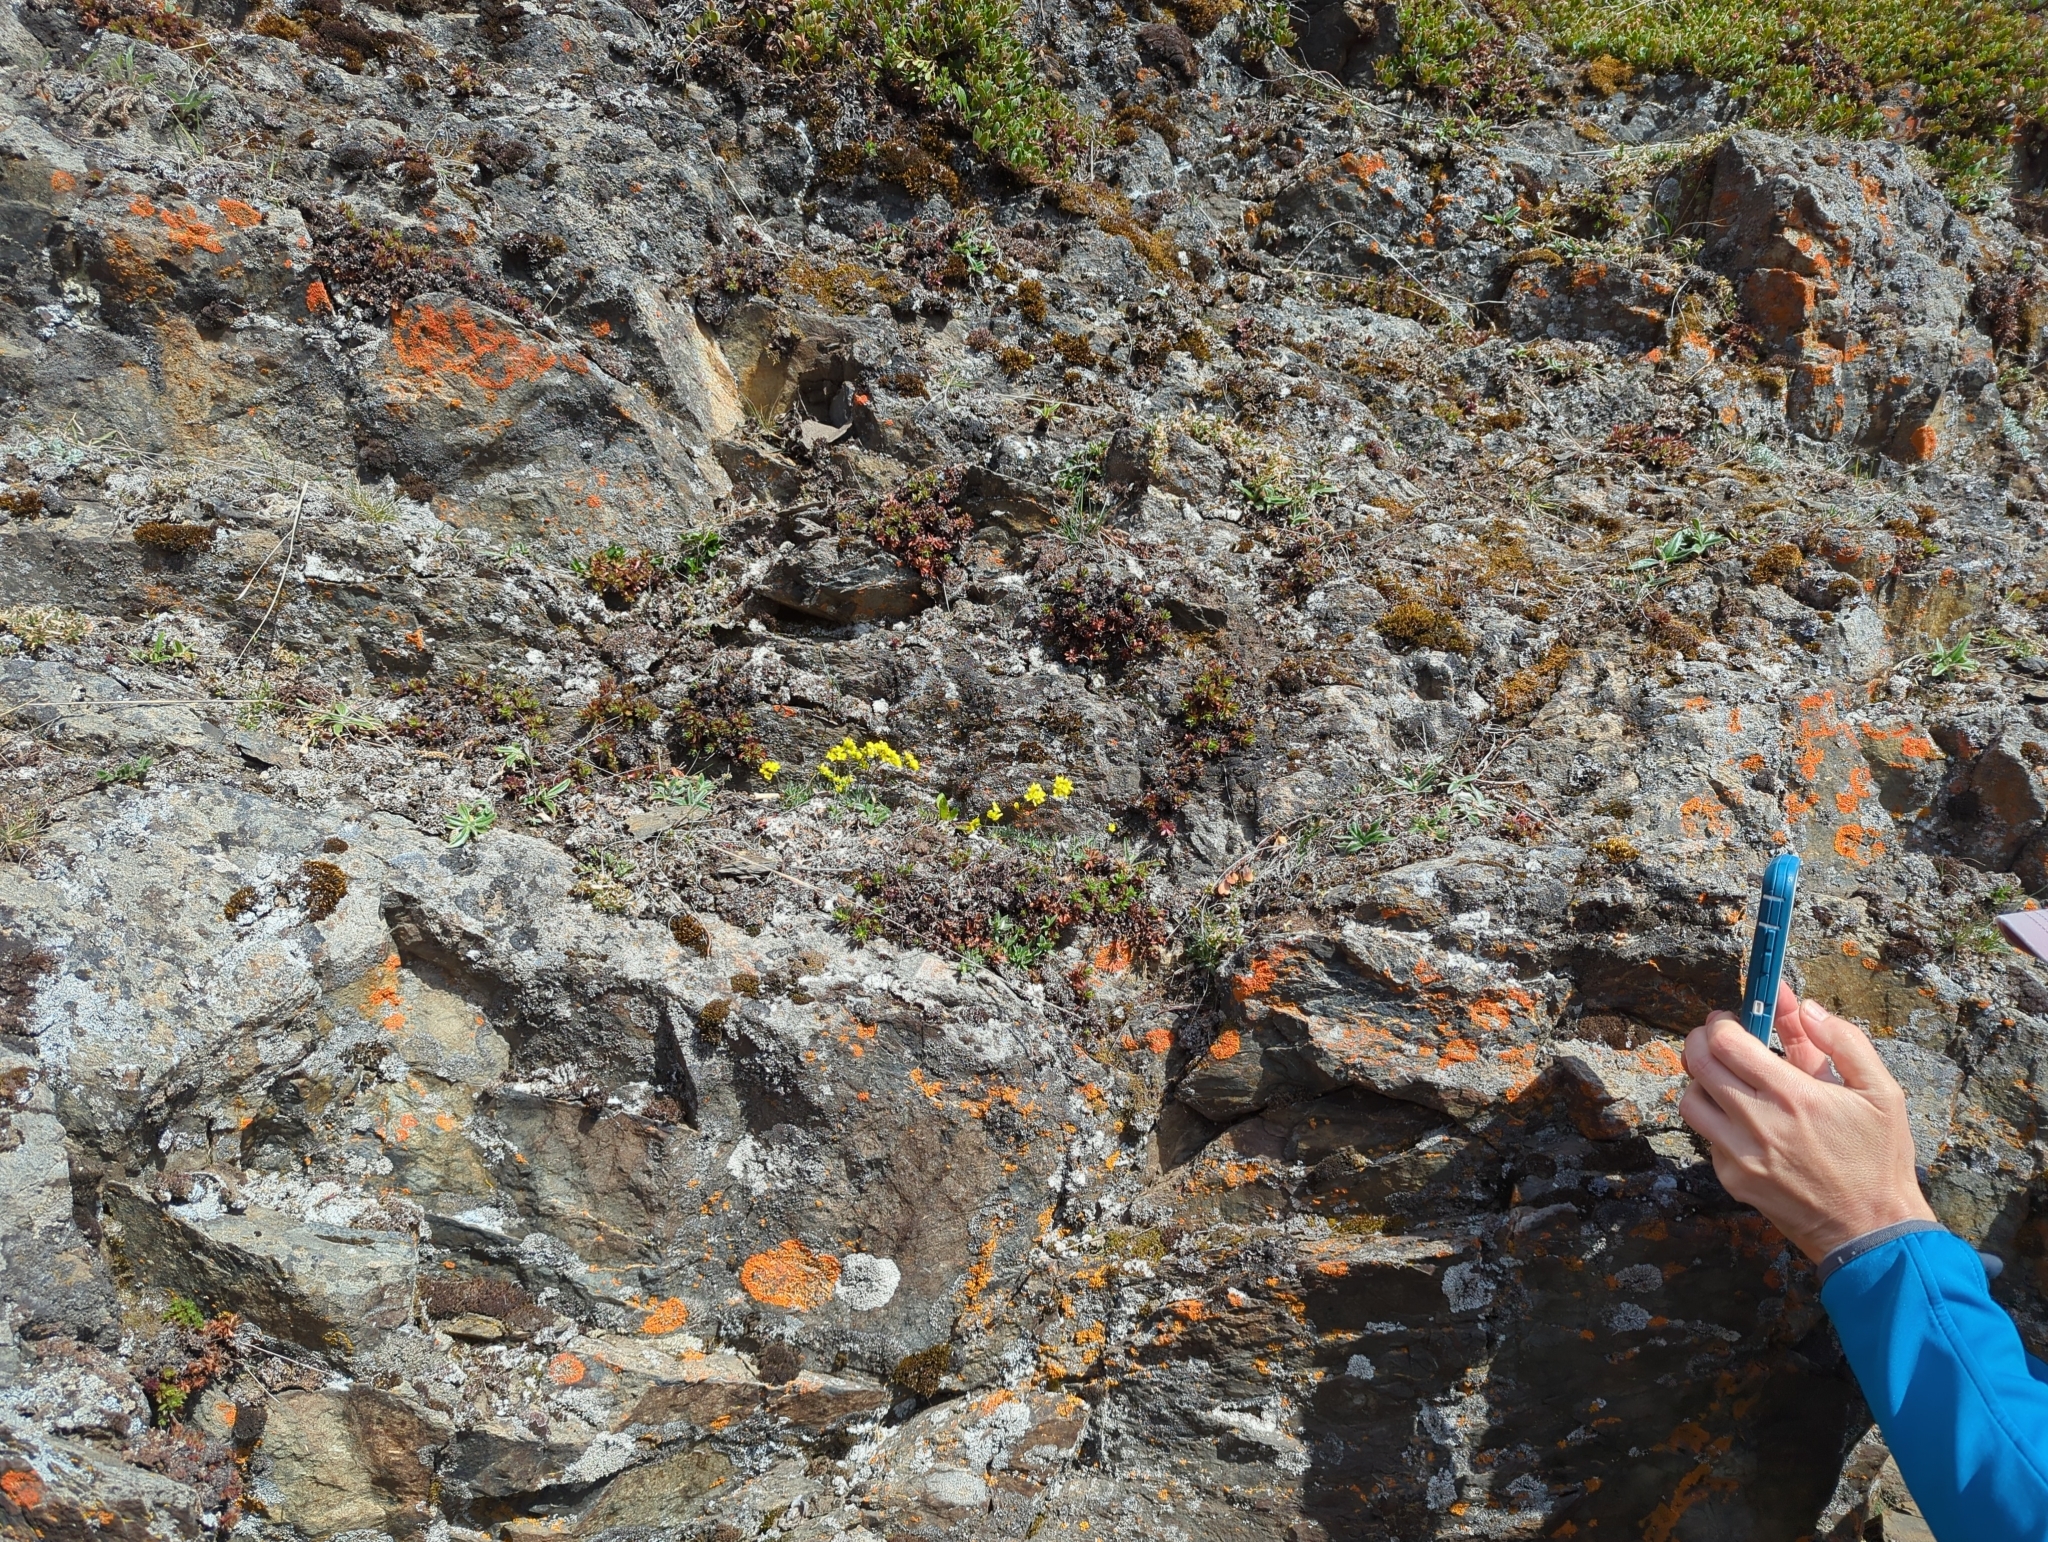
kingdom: Plantae
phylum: Tracheophyta
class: Magnoliopsida
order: Brassicales
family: Brassicaceae
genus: Draba
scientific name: Draba incerta
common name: Yellowstone draba
